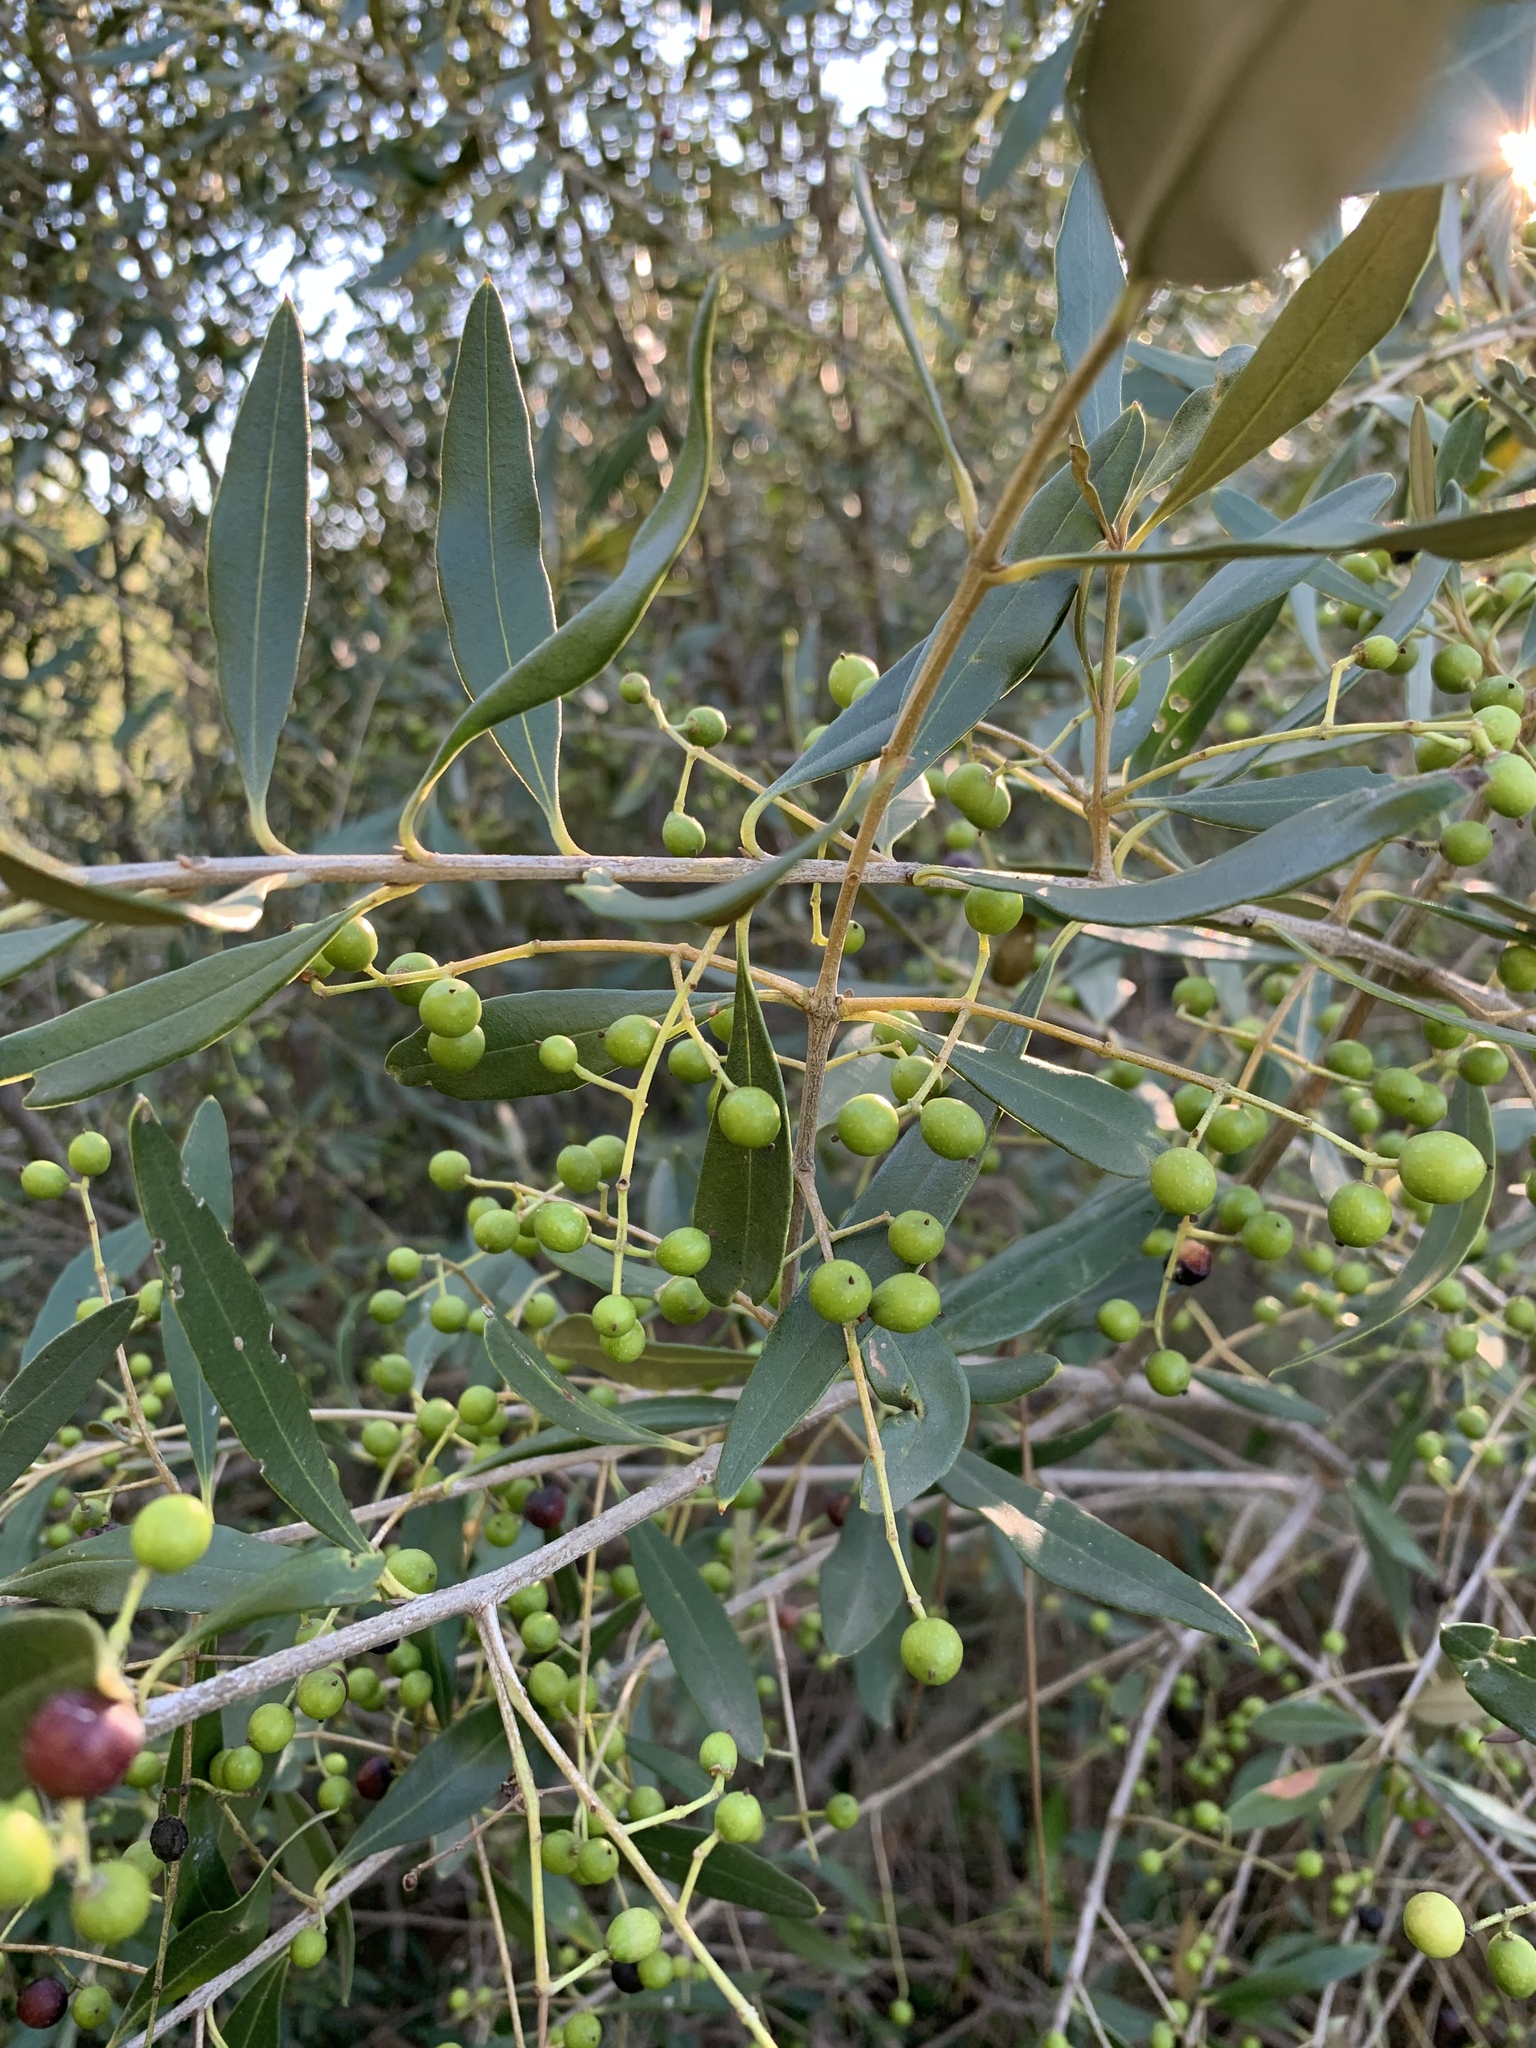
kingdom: Plantae
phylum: Tracheophyta
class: Magnoliopsida
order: Lamiales
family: Oleaceae
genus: Olea
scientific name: Olea europaea
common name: Olive
